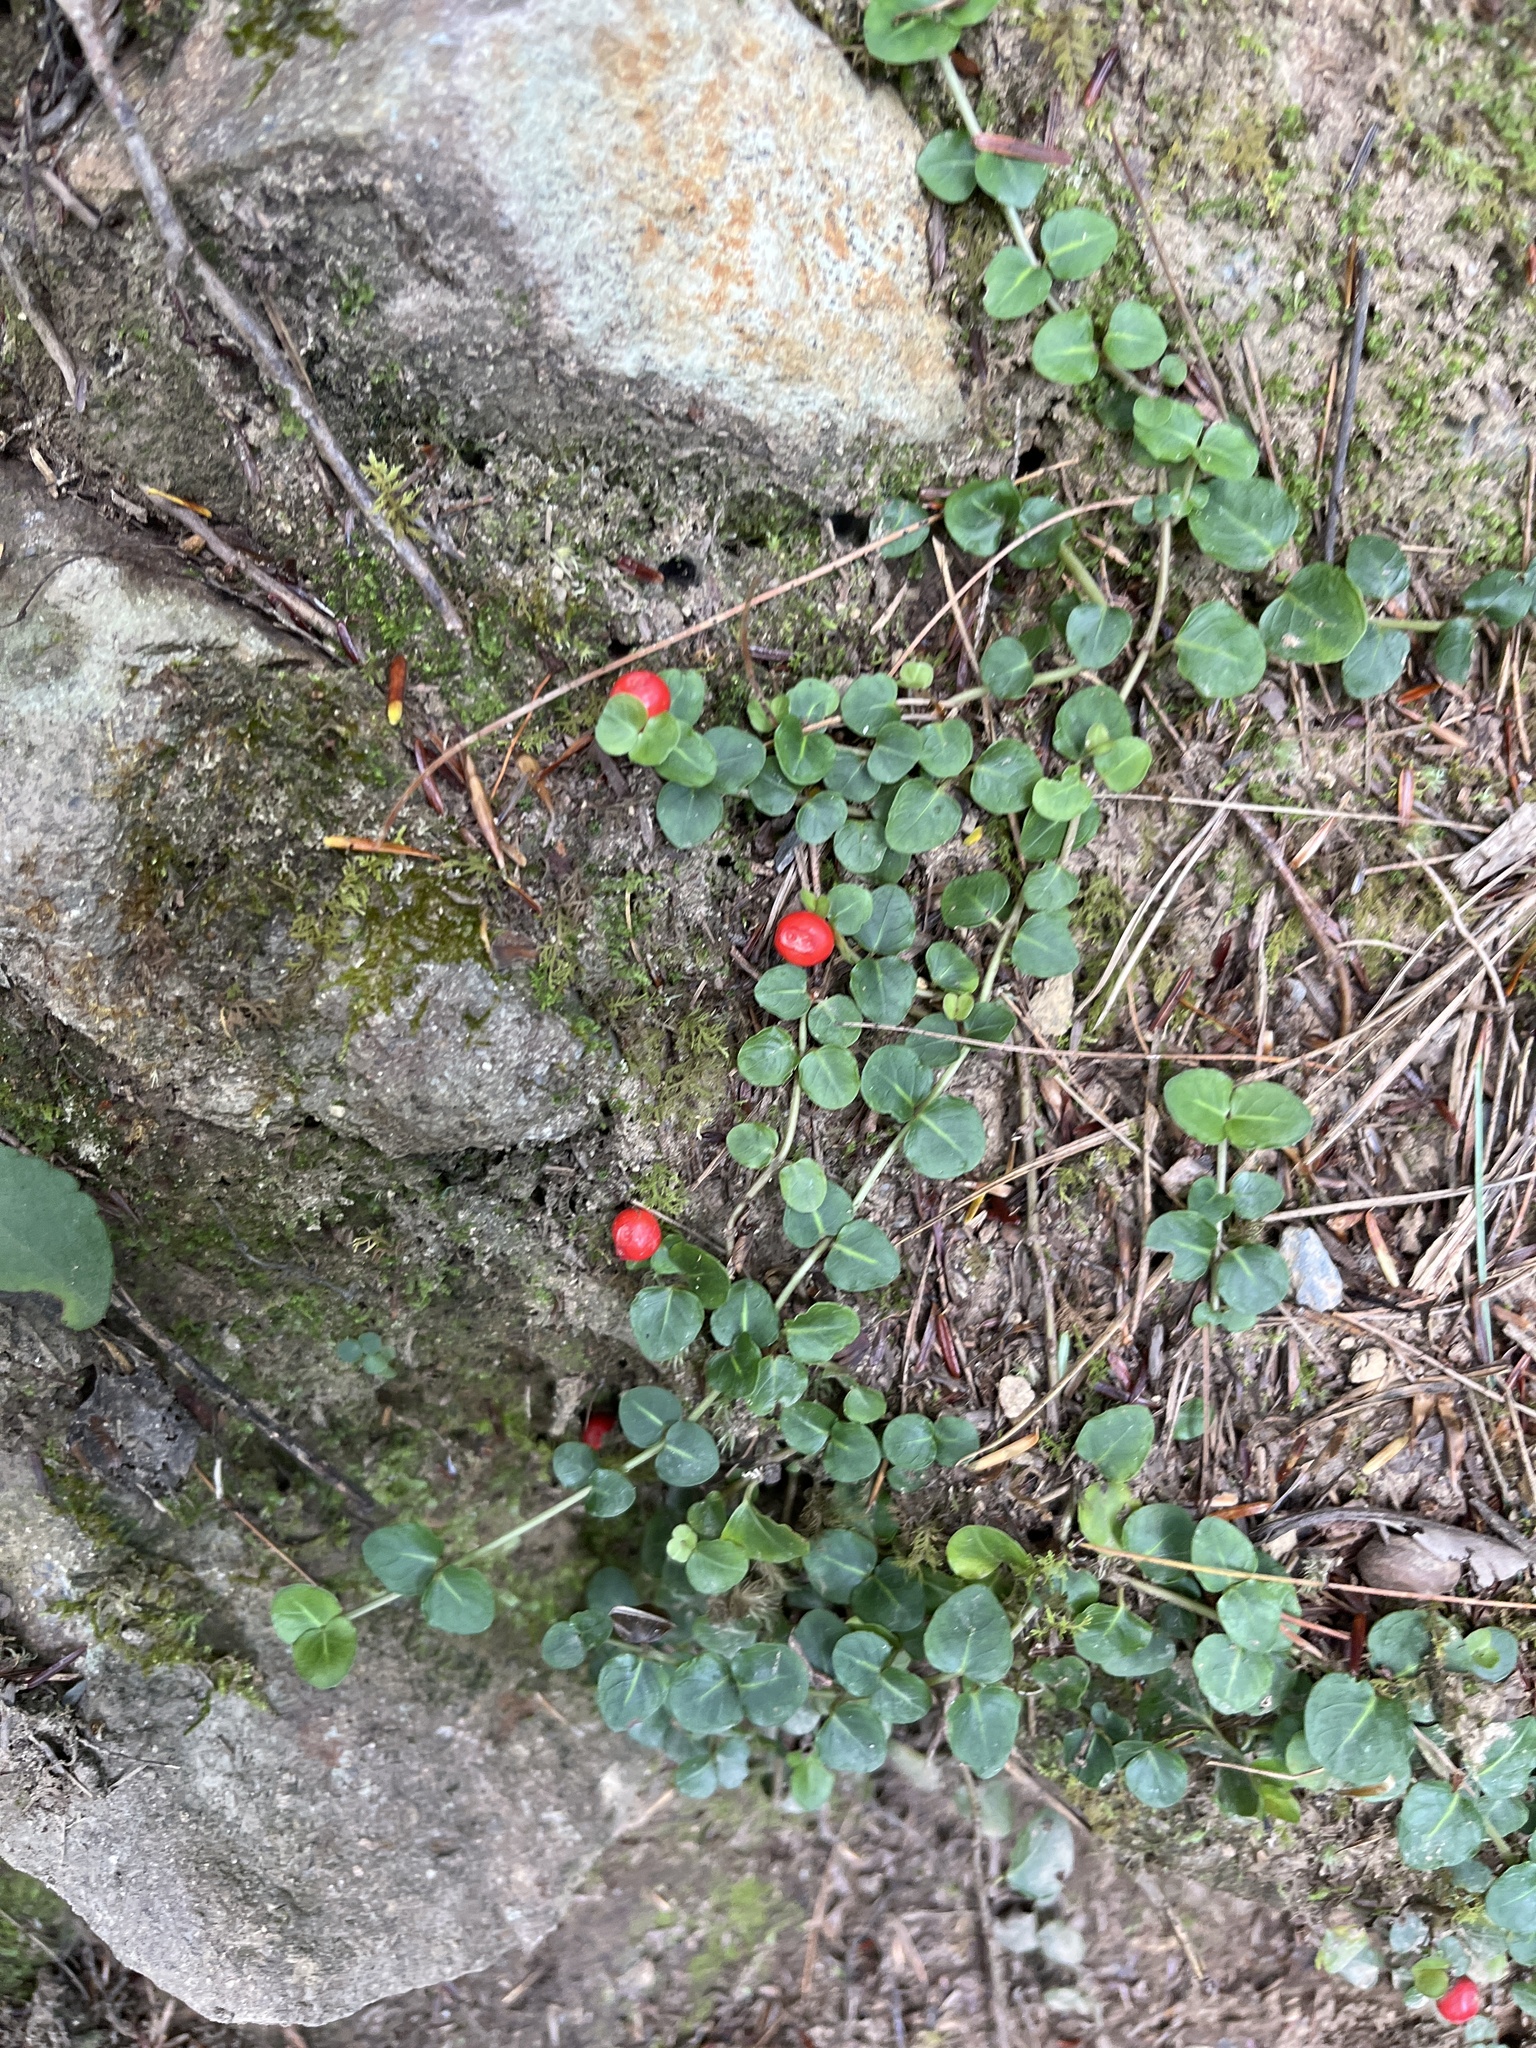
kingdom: Plantae
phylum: Tracheophyta
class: Magnoliopsida
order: Gentianales
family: Rubiaceae
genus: Mitchella
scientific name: Mitchella repens
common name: Partridge-berry
